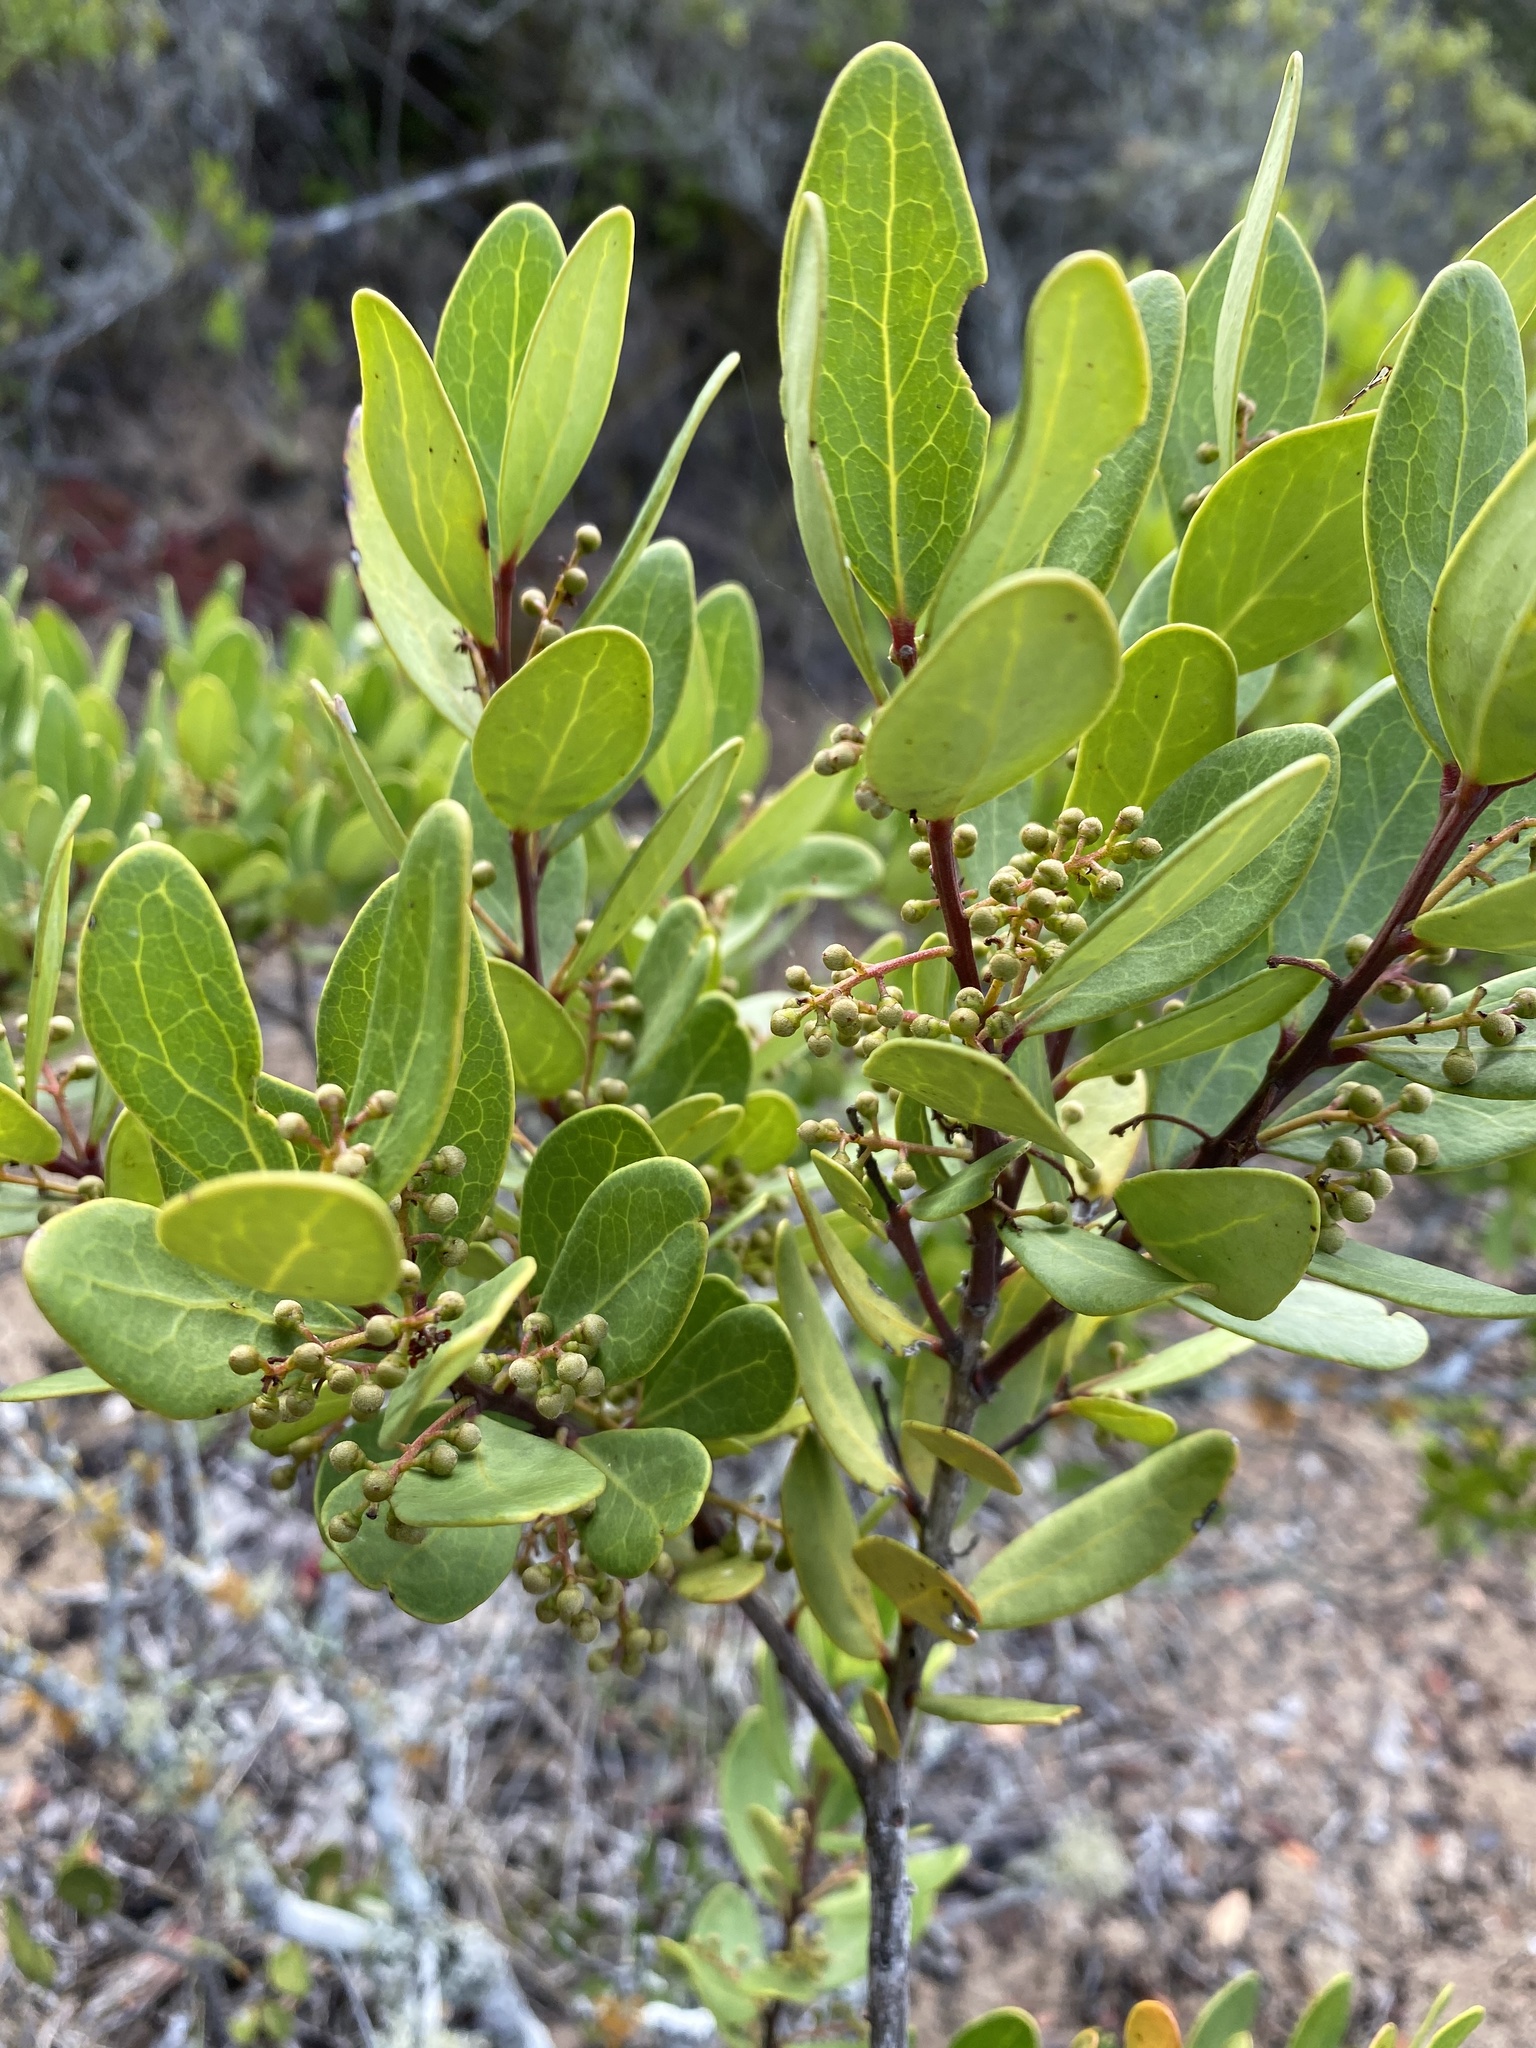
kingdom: Plantae
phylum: Tracheophyta
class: Magnoliopsida
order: Ericales
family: Ebenaceae
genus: Euclea
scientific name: Euclea racemosa
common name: Dune guarri
